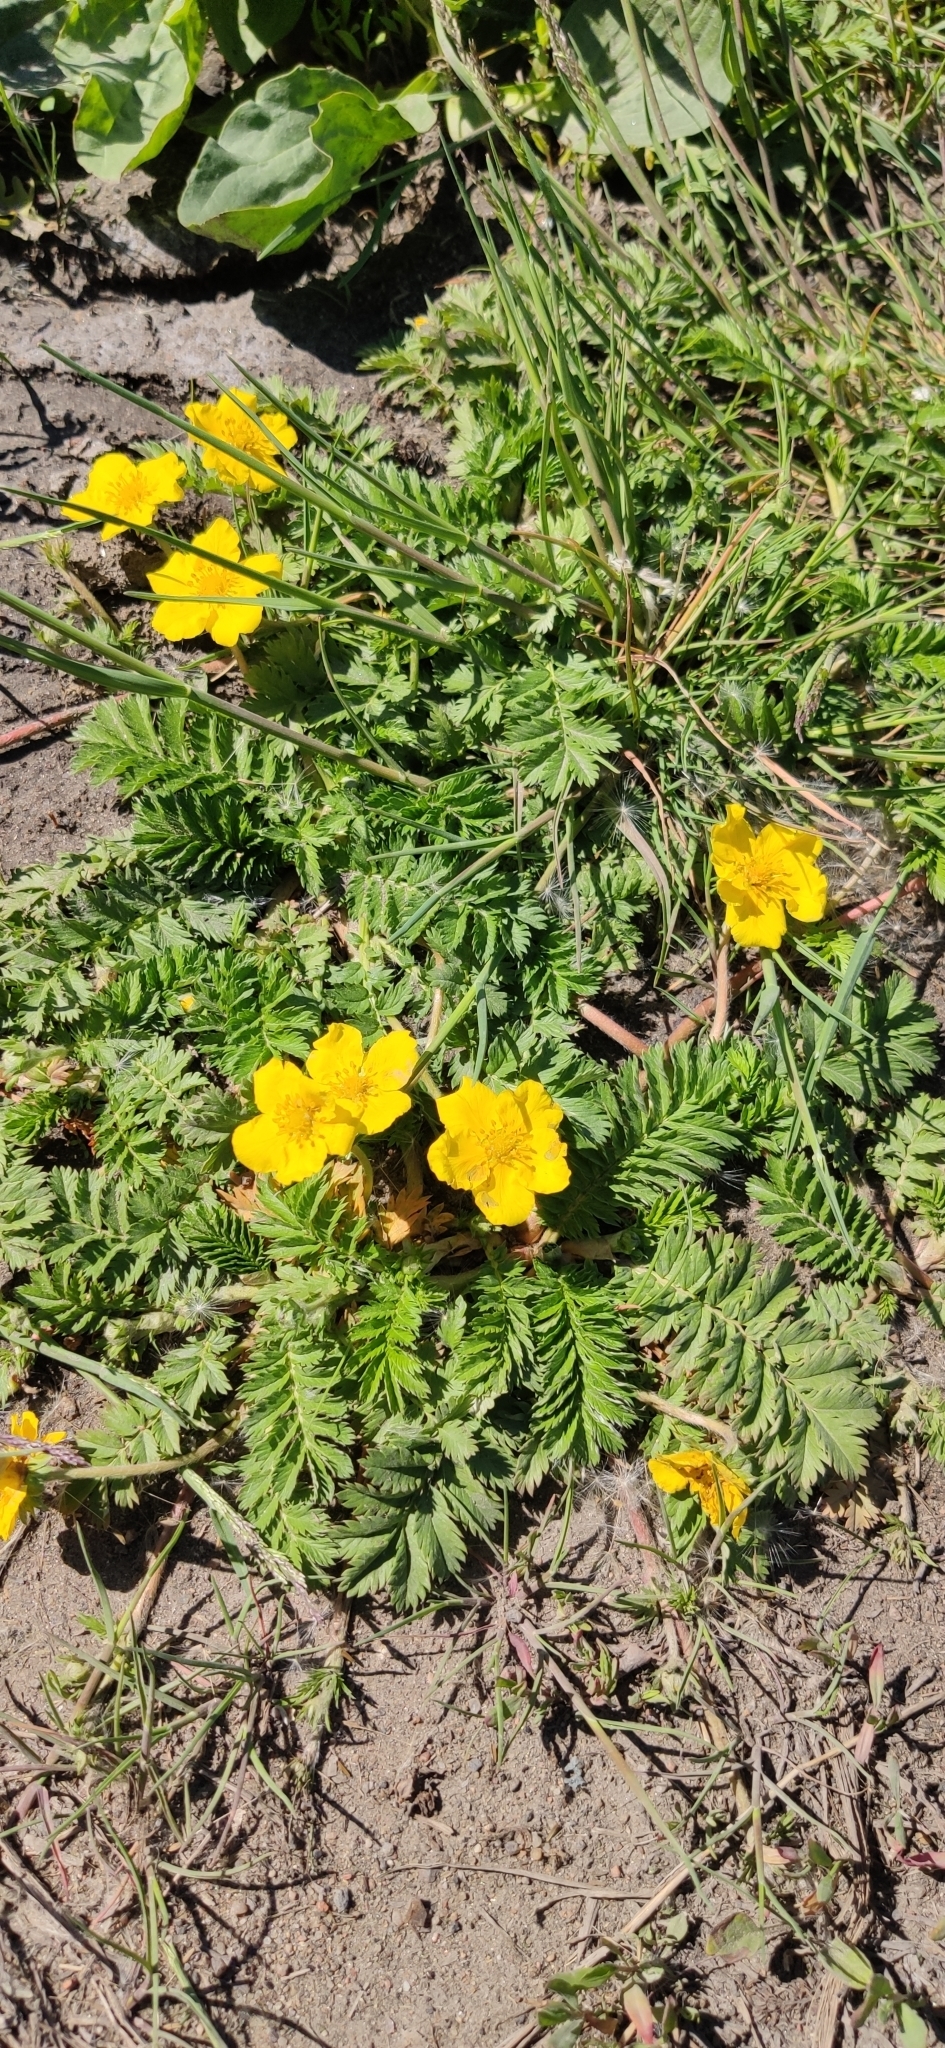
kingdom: Plantae
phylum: Tracheophyta
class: Magnoliopsida
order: Rosales
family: Rosaceae
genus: Argentina
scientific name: Argentina anserina
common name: Common silverweed
